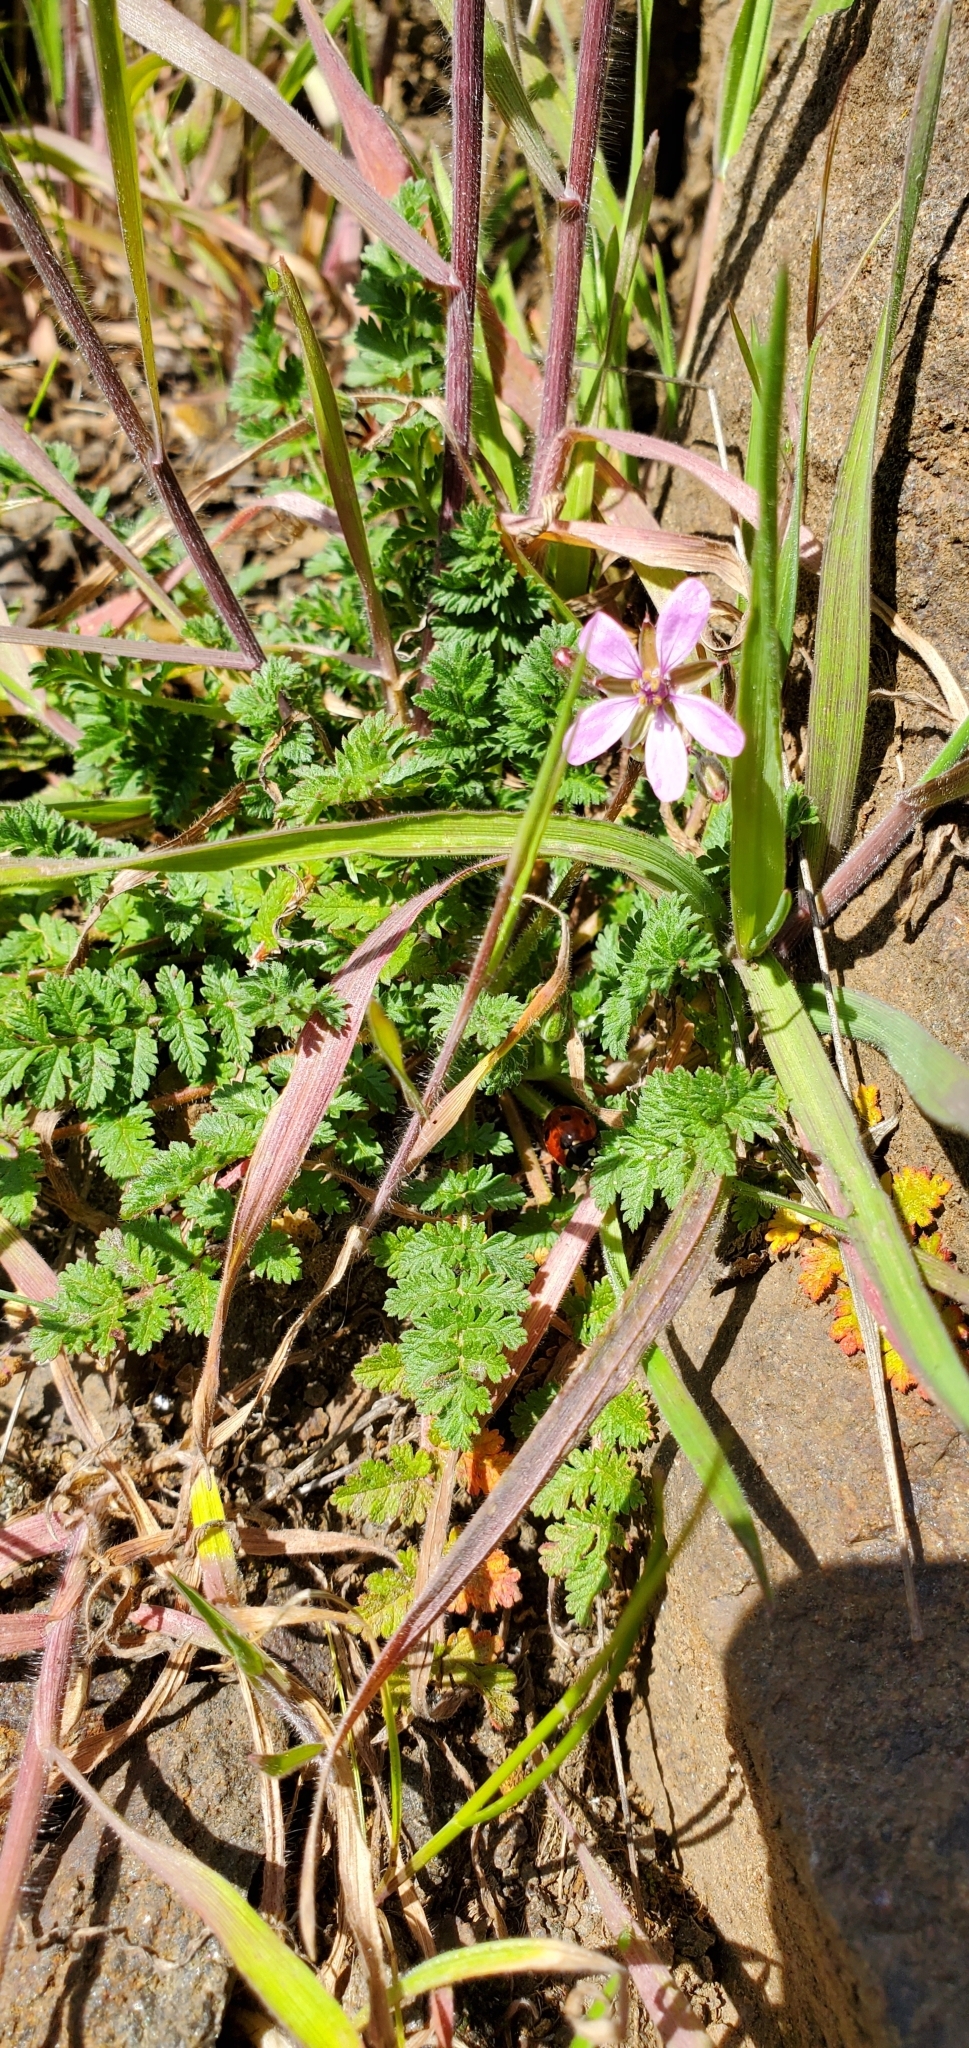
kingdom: Plantae
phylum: Tracheophyta
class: Magnoliopsida
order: Geraniales
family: Geraniaceae
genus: Erodium
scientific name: Erodium cicutarium
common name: Common stork's-bill
